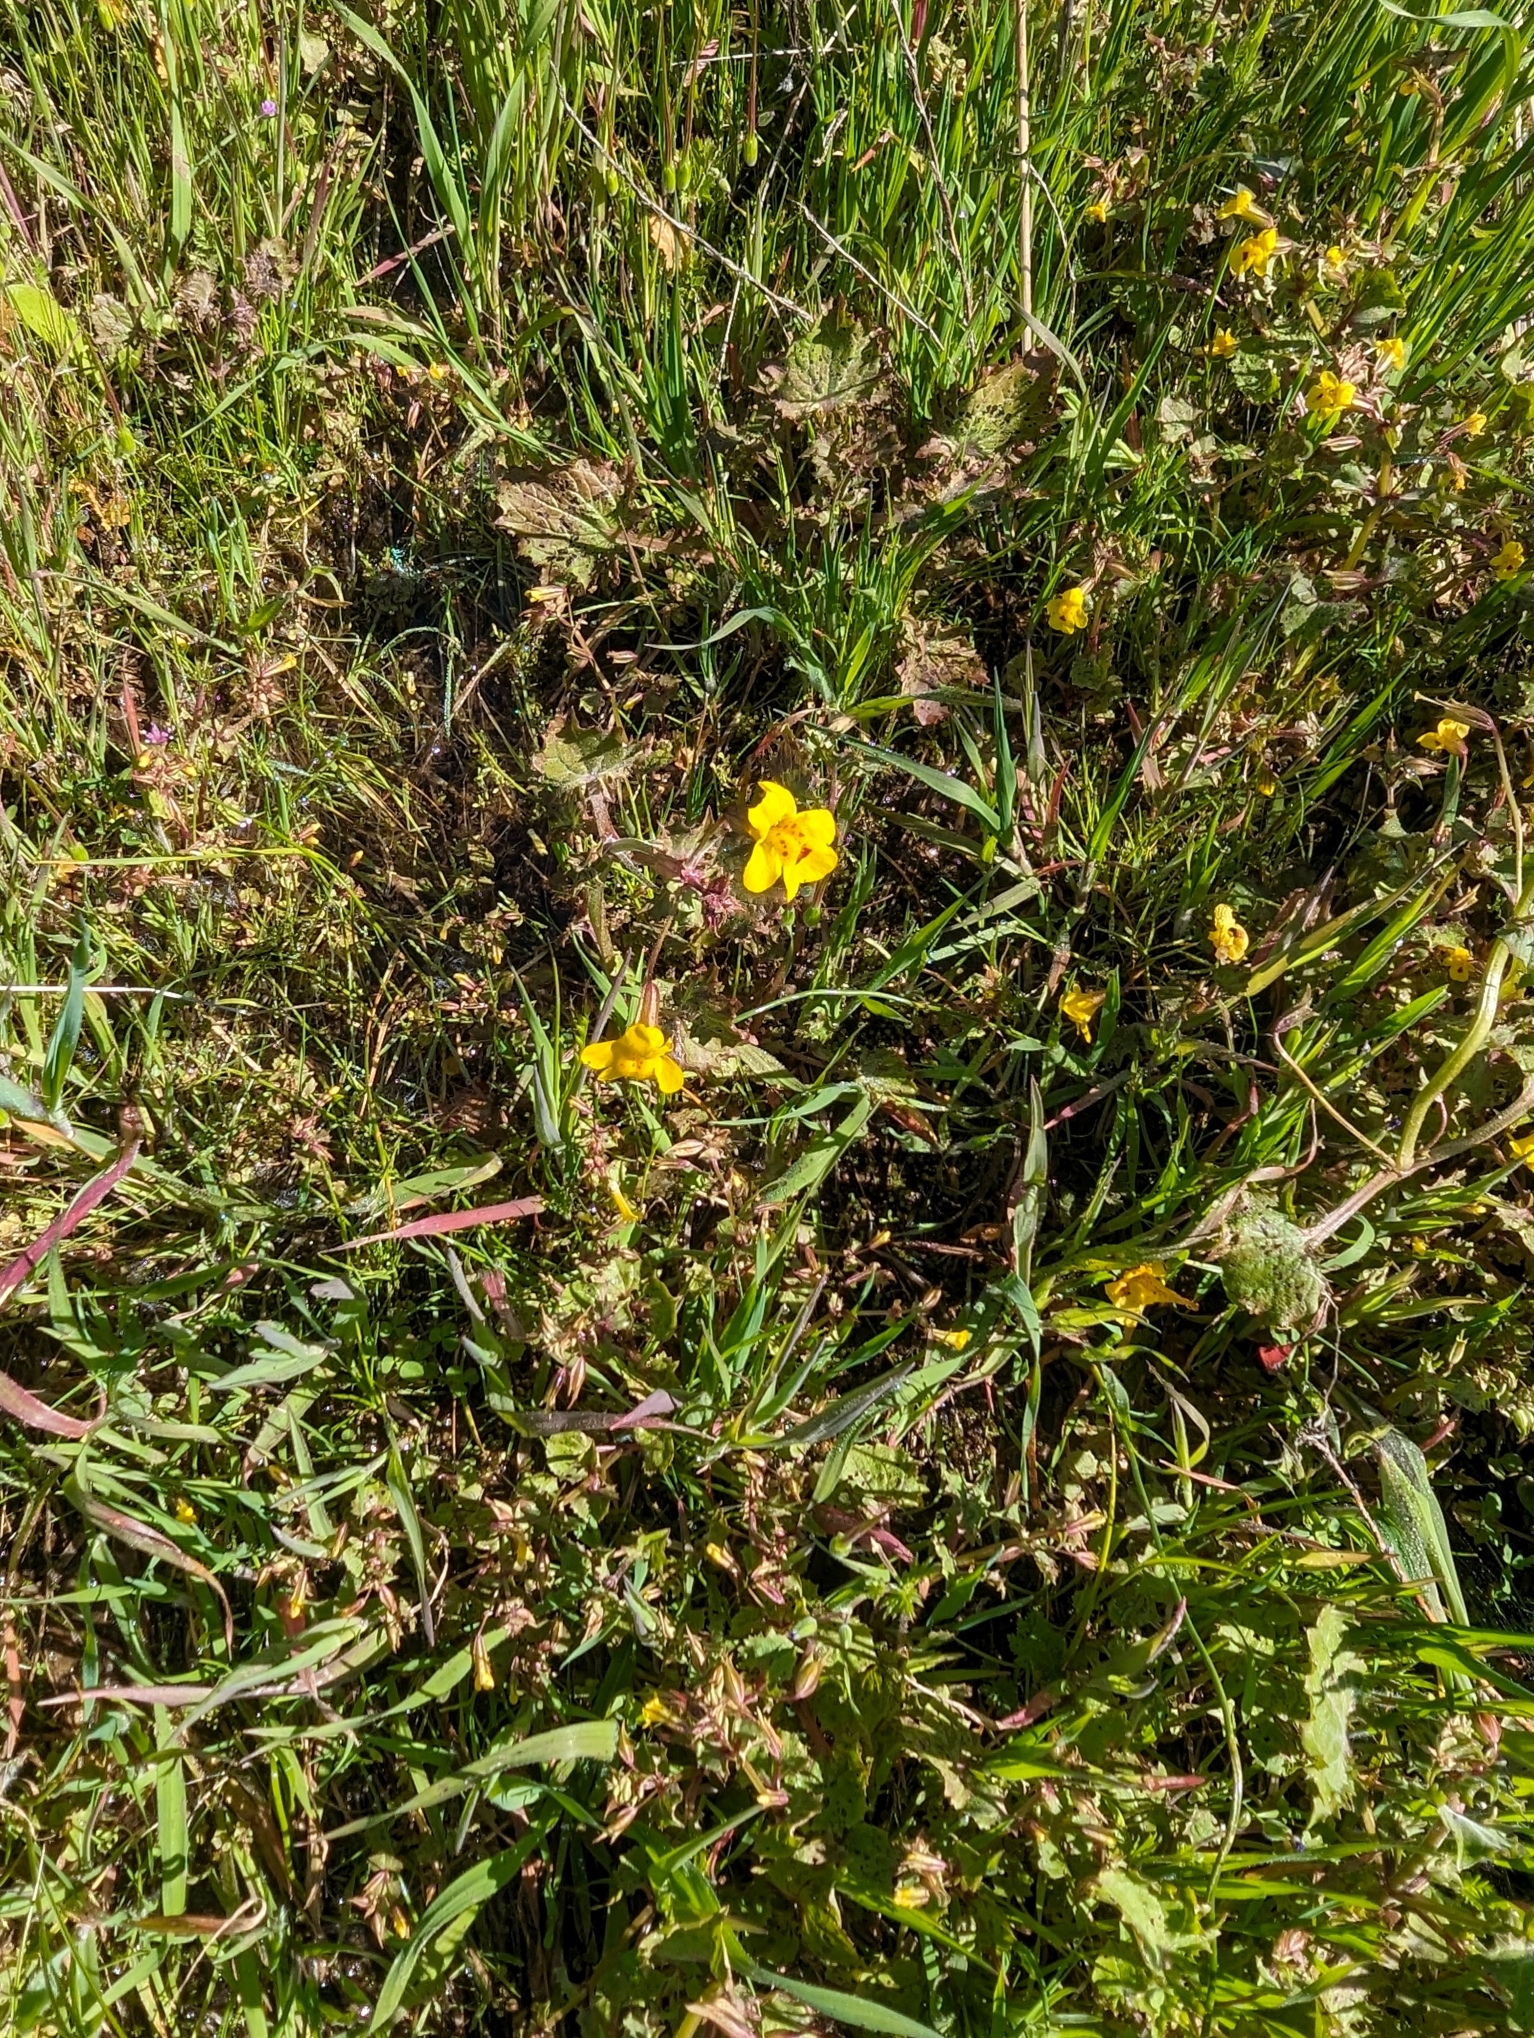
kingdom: Plantae
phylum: Tracheophyta
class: Magnoliopsida
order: Lamiales
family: Phrymaceae
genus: Erythranthe
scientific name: Erythranthe nasuta
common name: Sooke monkeyflower
